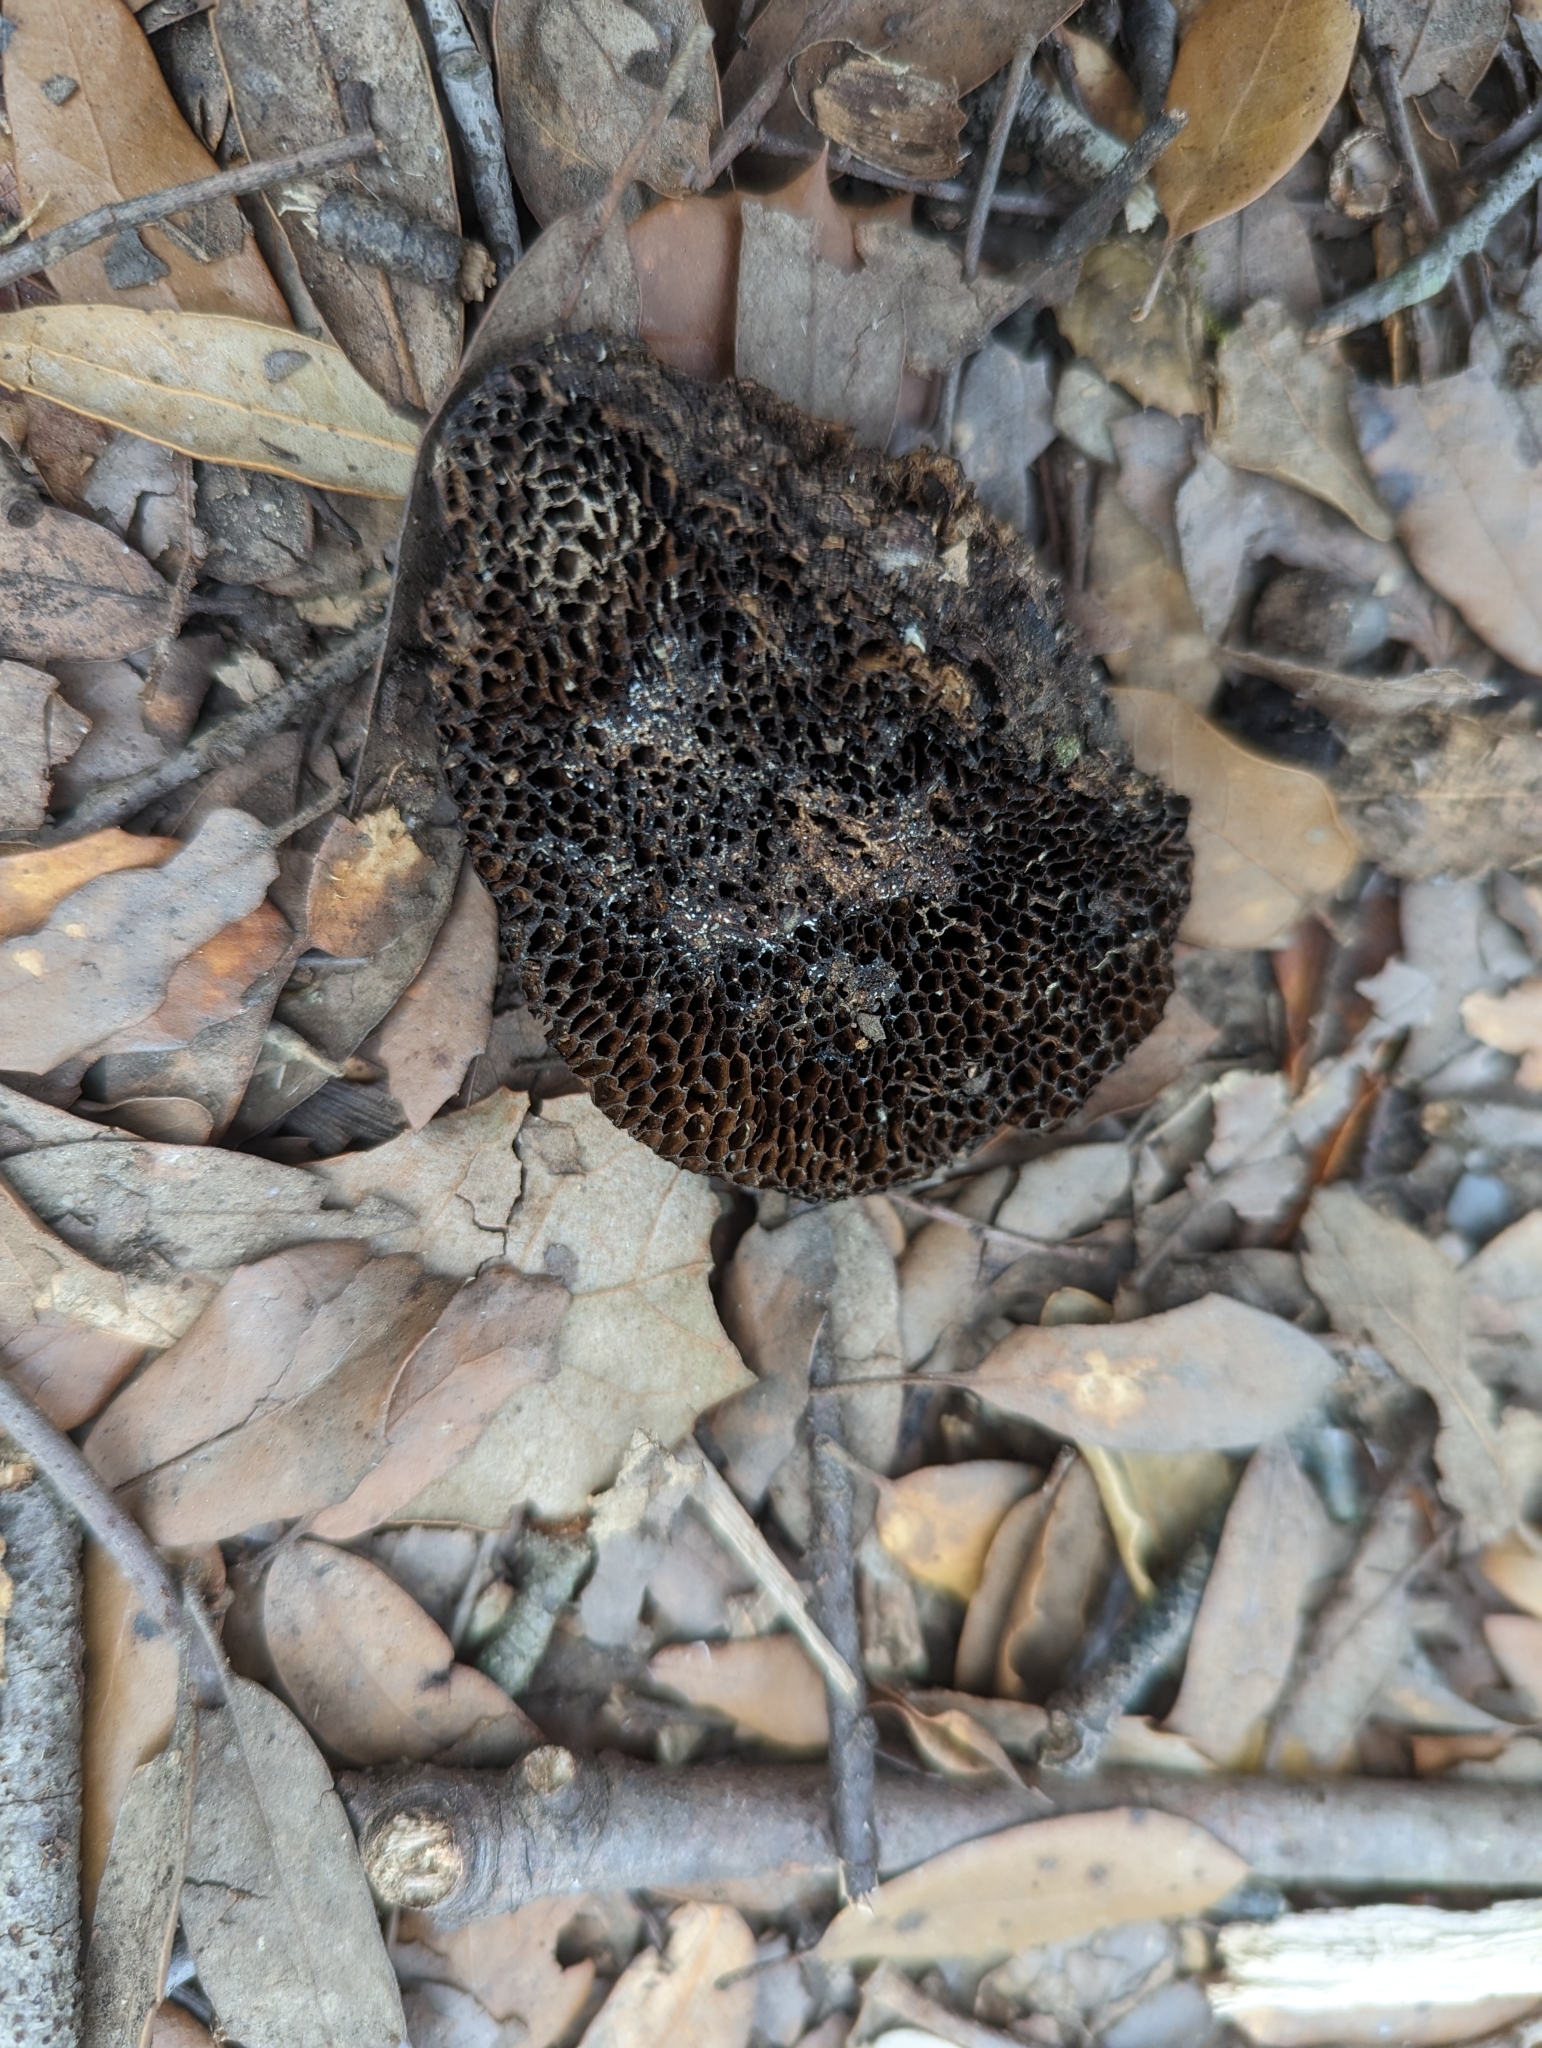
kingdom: Fungi
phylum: Basidiomycota
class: Agaricomycetes
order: Polyporales
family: Polyporaceae
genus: Daedaleopsis
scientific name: Daedaleopsis nitida
